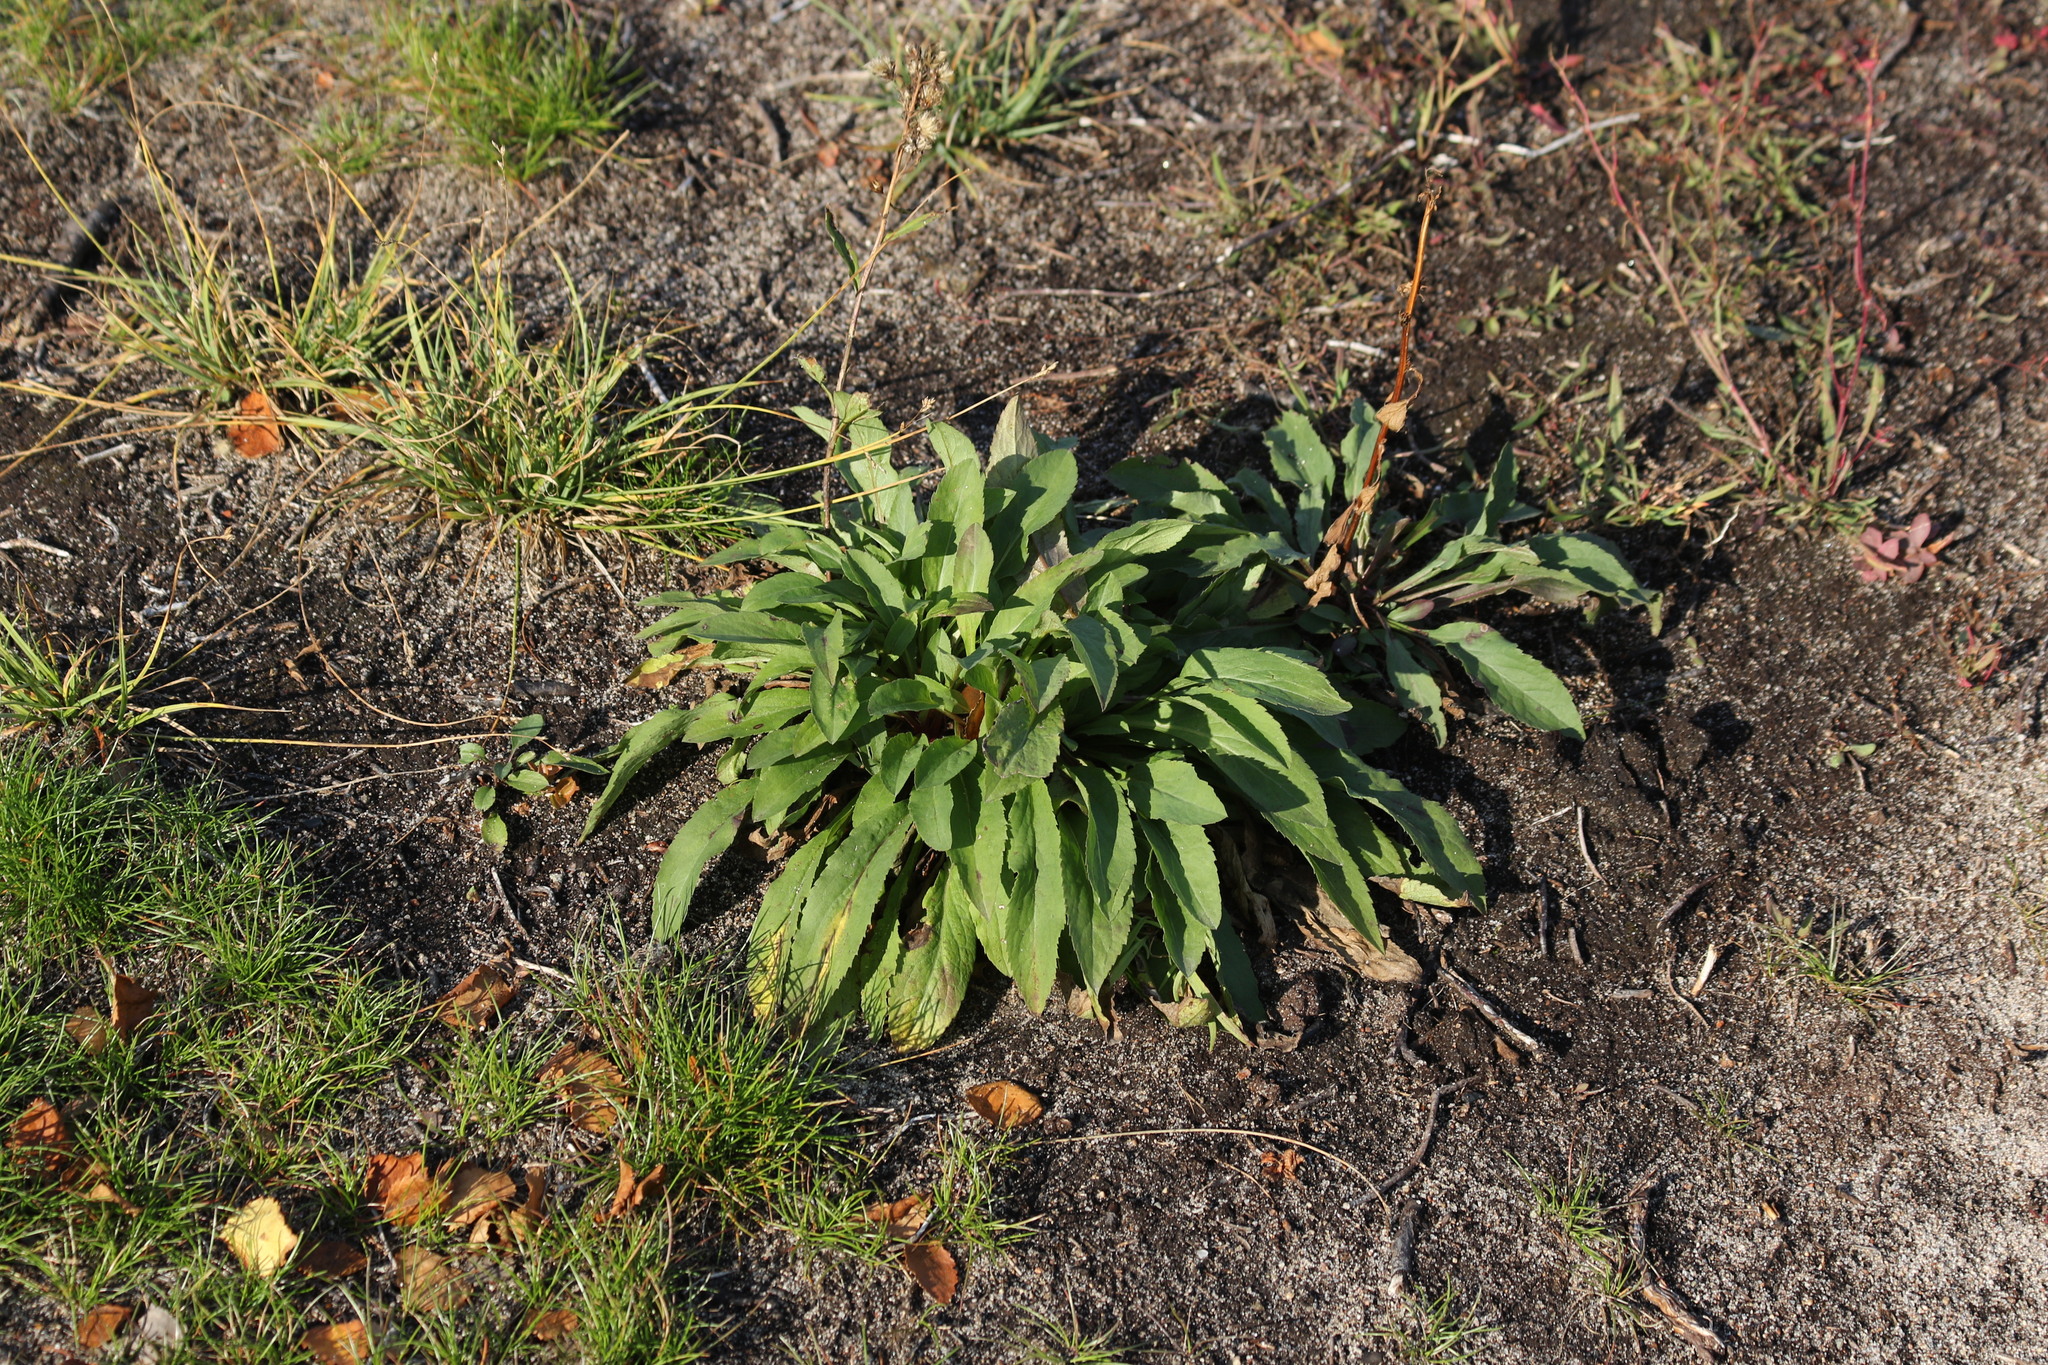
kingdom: Plantae
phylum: Tracheophyta
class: Magnoliopsida
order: Asterales
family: Asteraceae
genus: Solidago
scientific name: Solidago virgaurea
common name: Goldenrod
